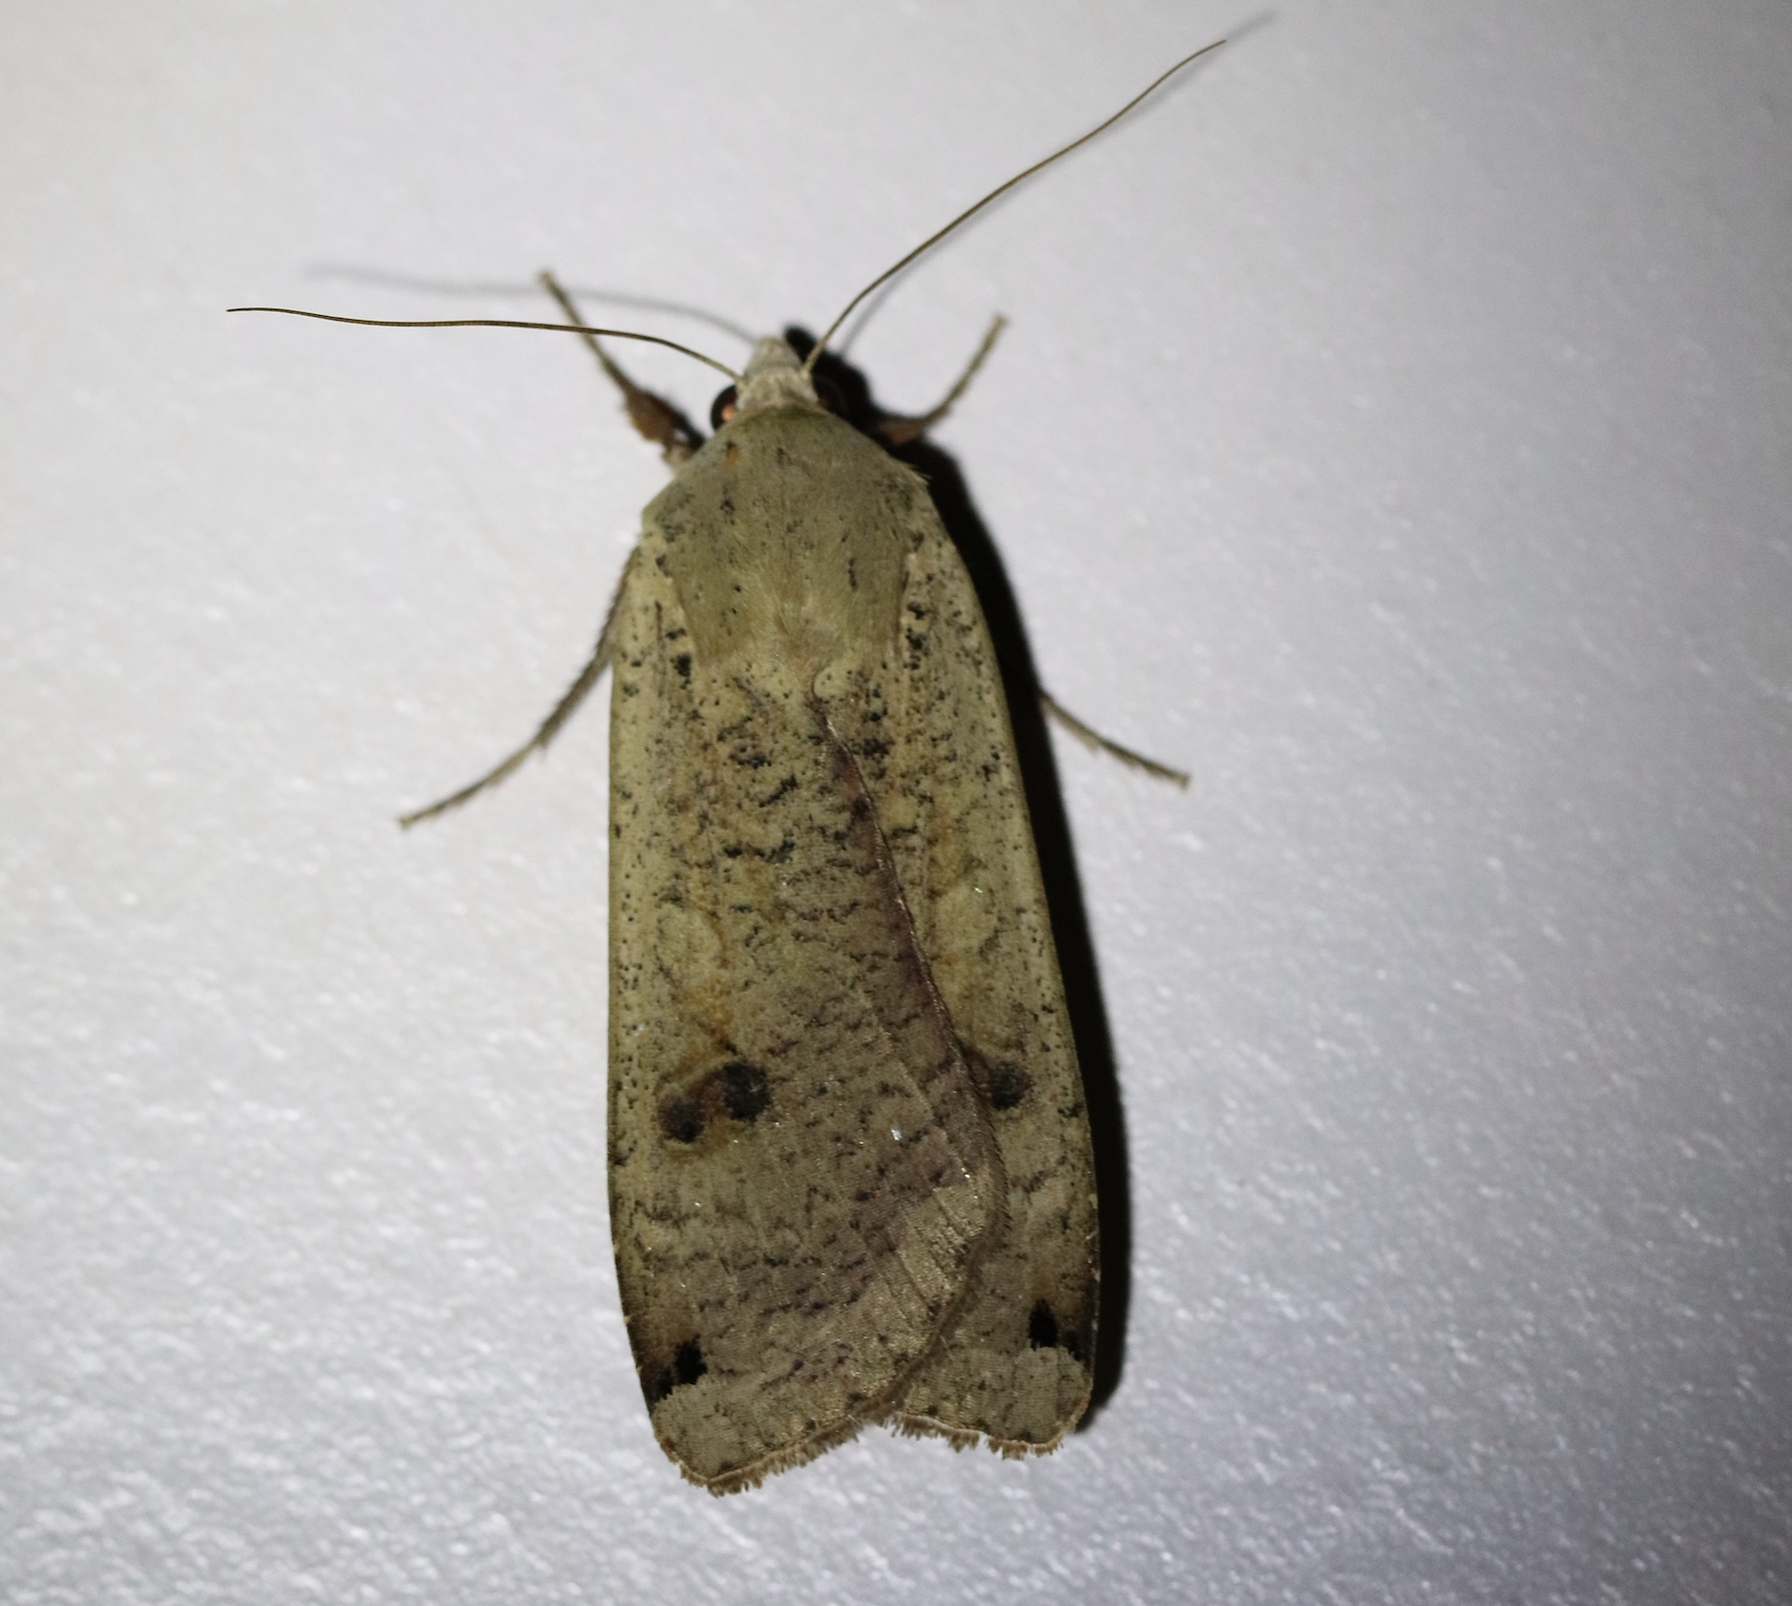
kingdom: Animalia
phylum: Arthropoda
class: Insecta
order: Lepidoptera
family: Noctuidae
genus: Noctua
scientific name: Noctua pronuba
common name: Large yellow underwing
